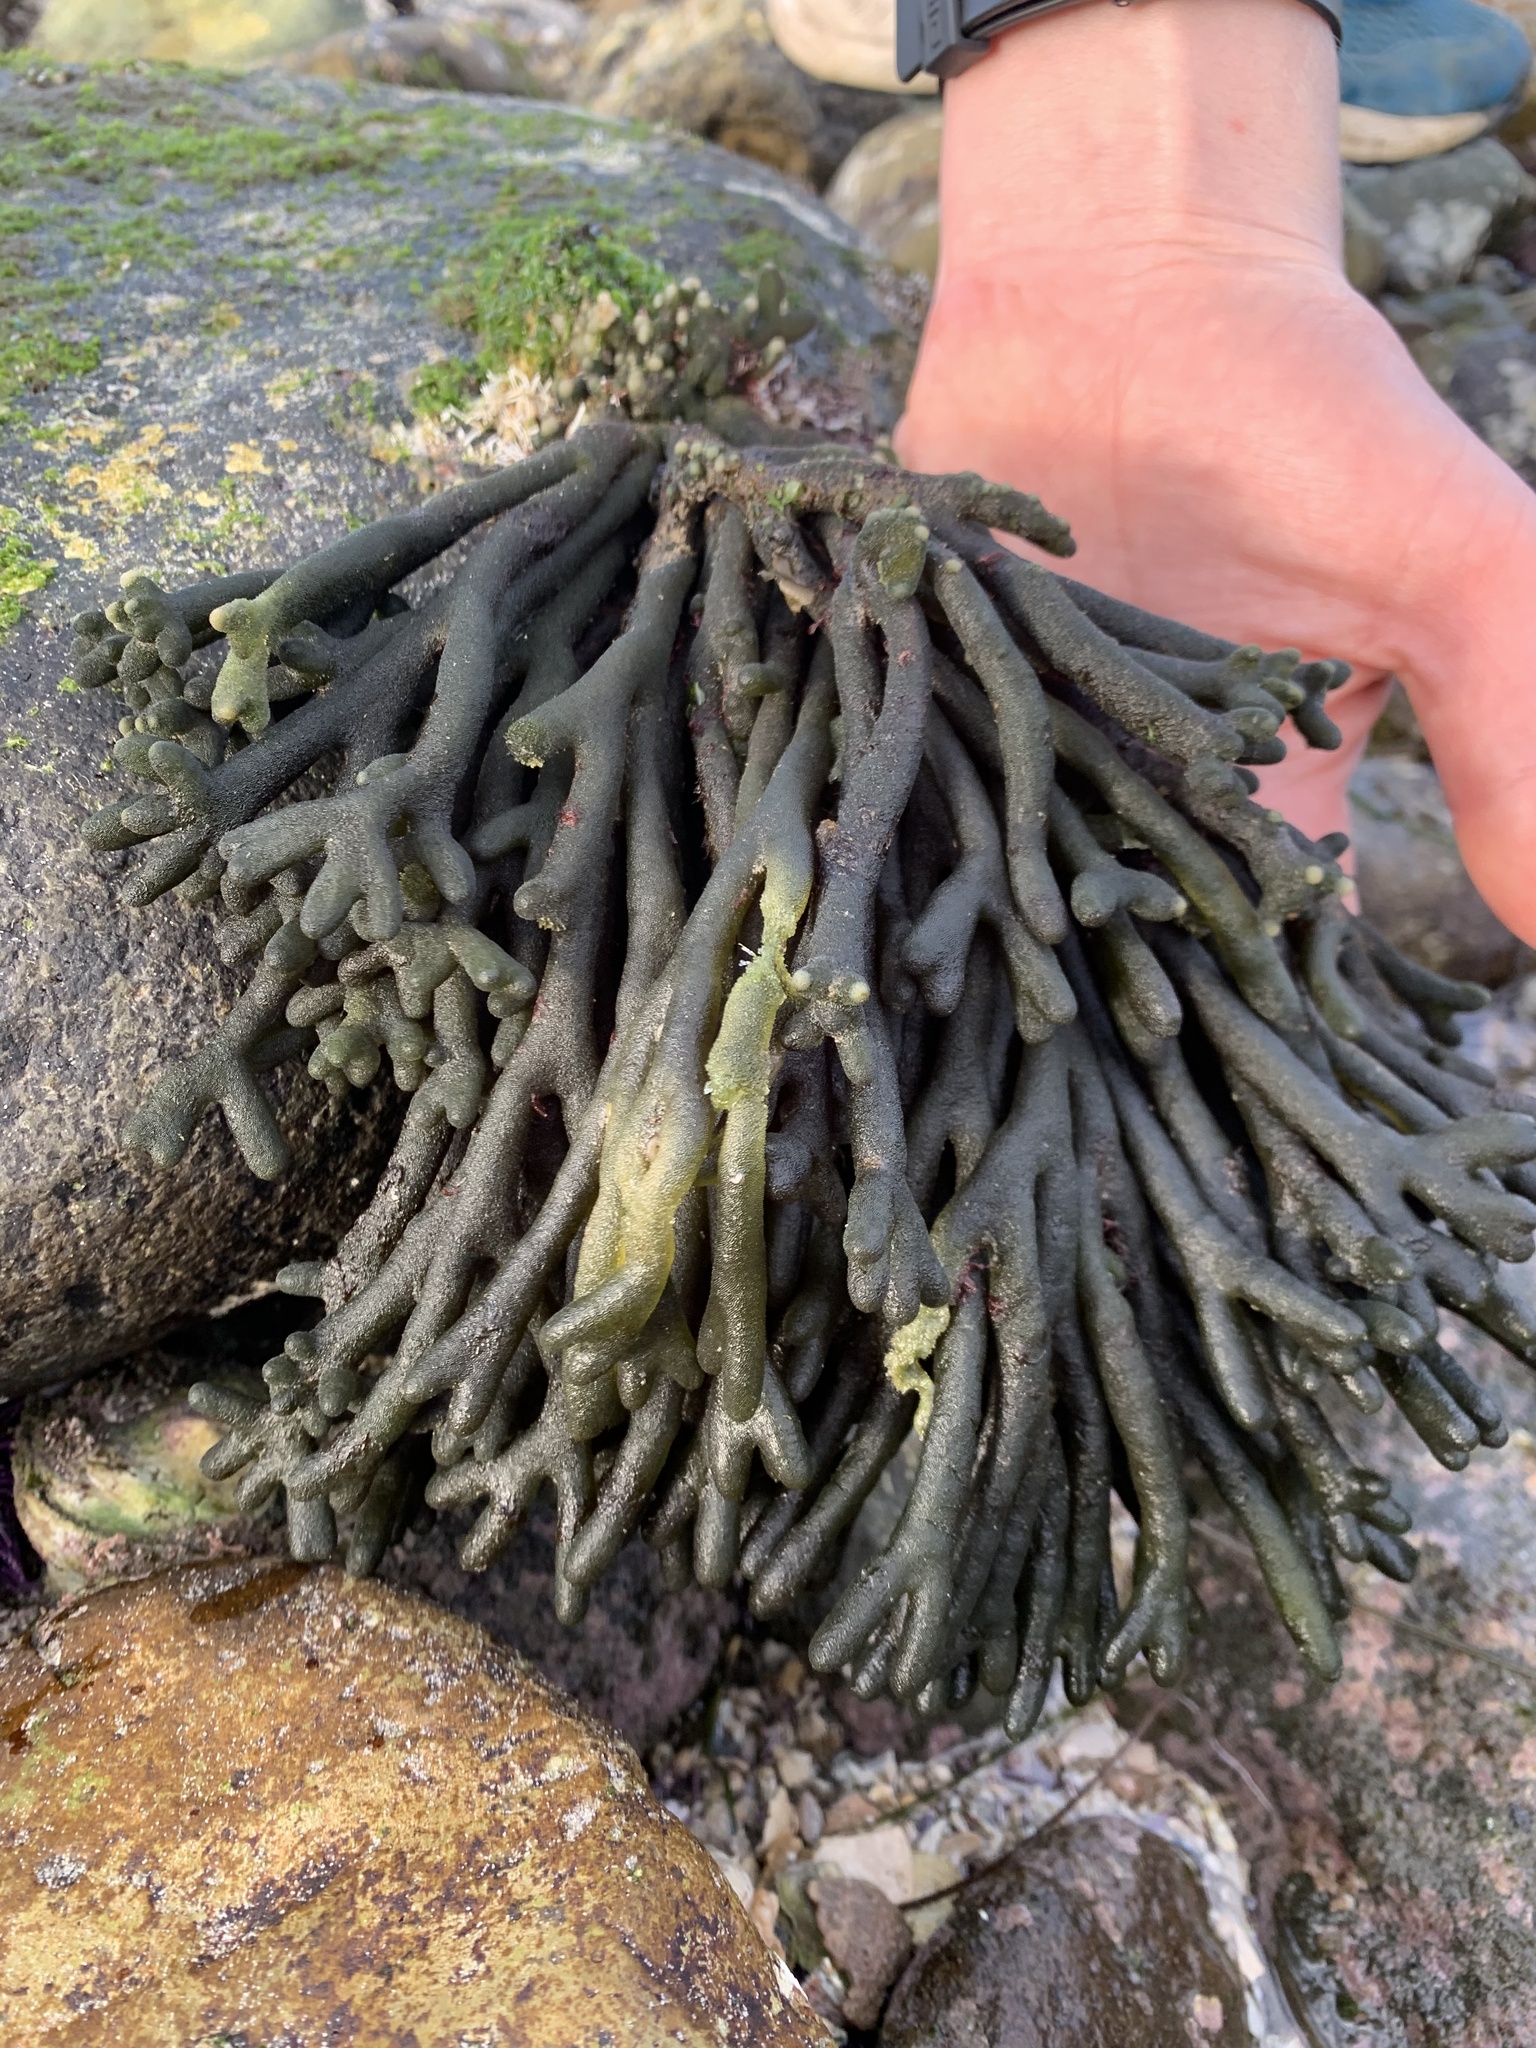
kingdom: Plantae
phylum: Chlorophyta
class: Ulvophyceae
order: Bryopsidales
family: Codiaceae
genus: Codium
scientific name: Codium fragile
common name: Dead man's fingers
